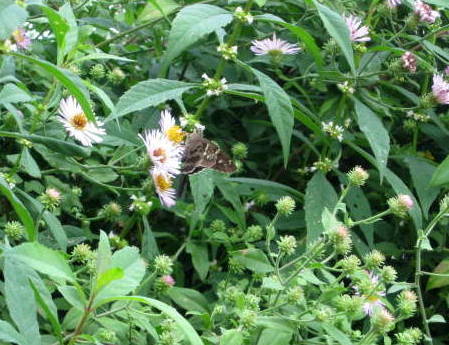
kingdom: Plantae
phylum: Tracheophyta
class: Magnoliopsida
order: Asterales
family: Asteraceae
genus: Ampelaster
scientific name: Ampelaster carolinianus
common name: Climbing aster
